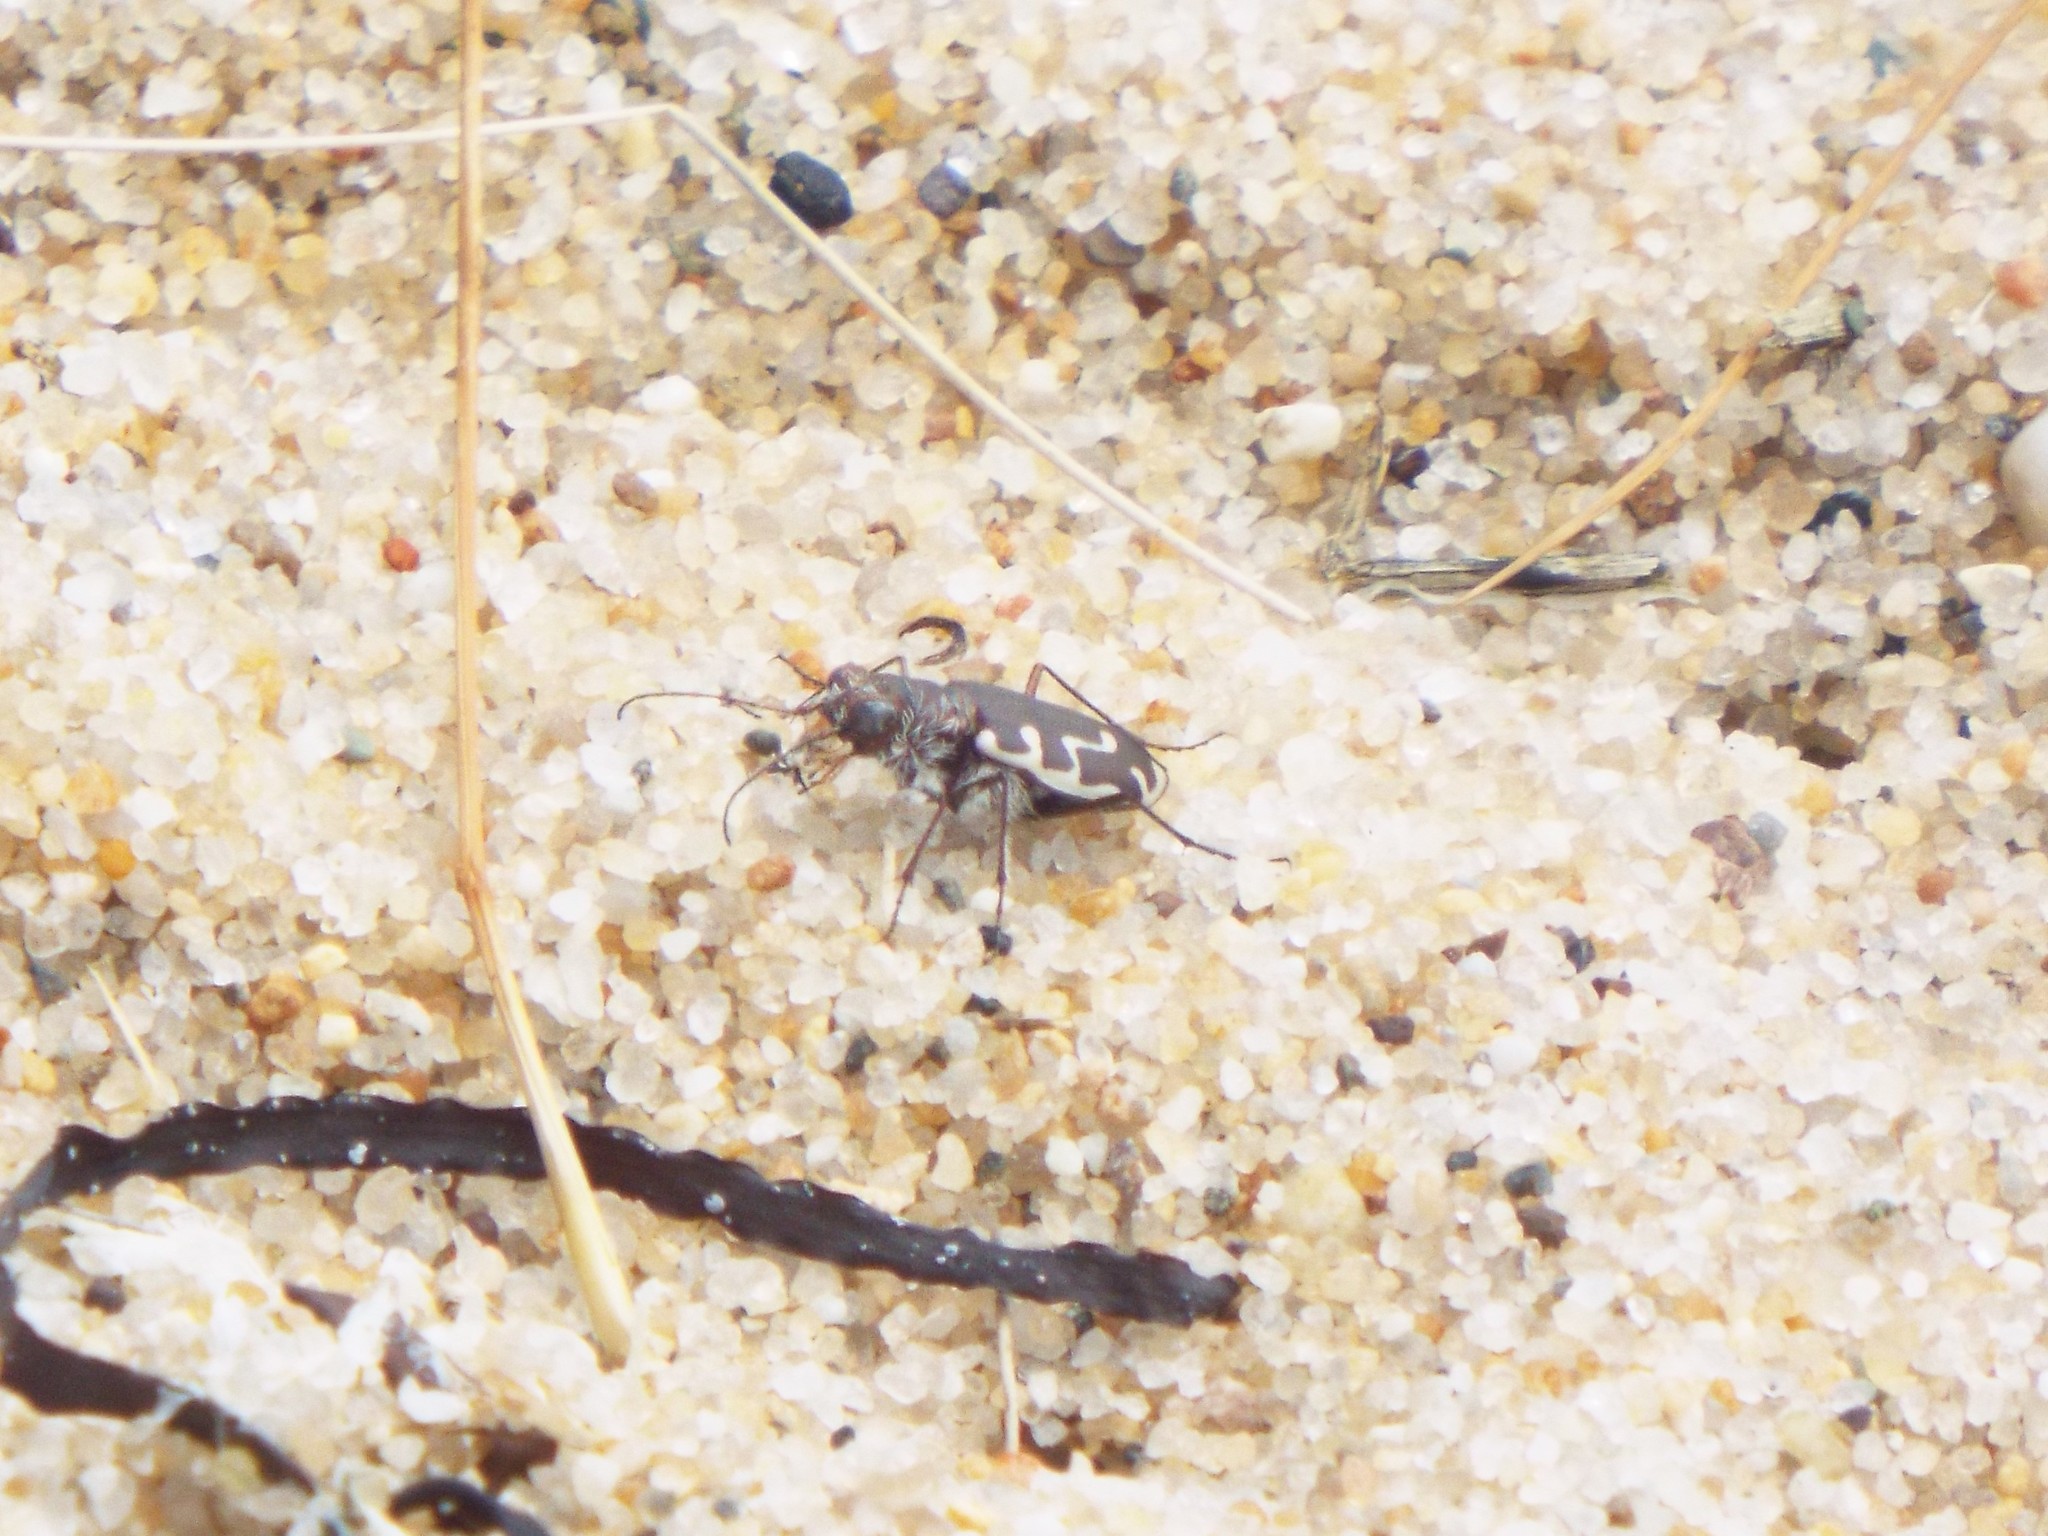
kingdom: Animalia
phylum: Arthropoda
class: Insecta
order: Coleoptera
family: Carabidae
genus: Cicindela
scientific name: Cicindela hirticollis
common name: Hairy-necked tiger beetle
